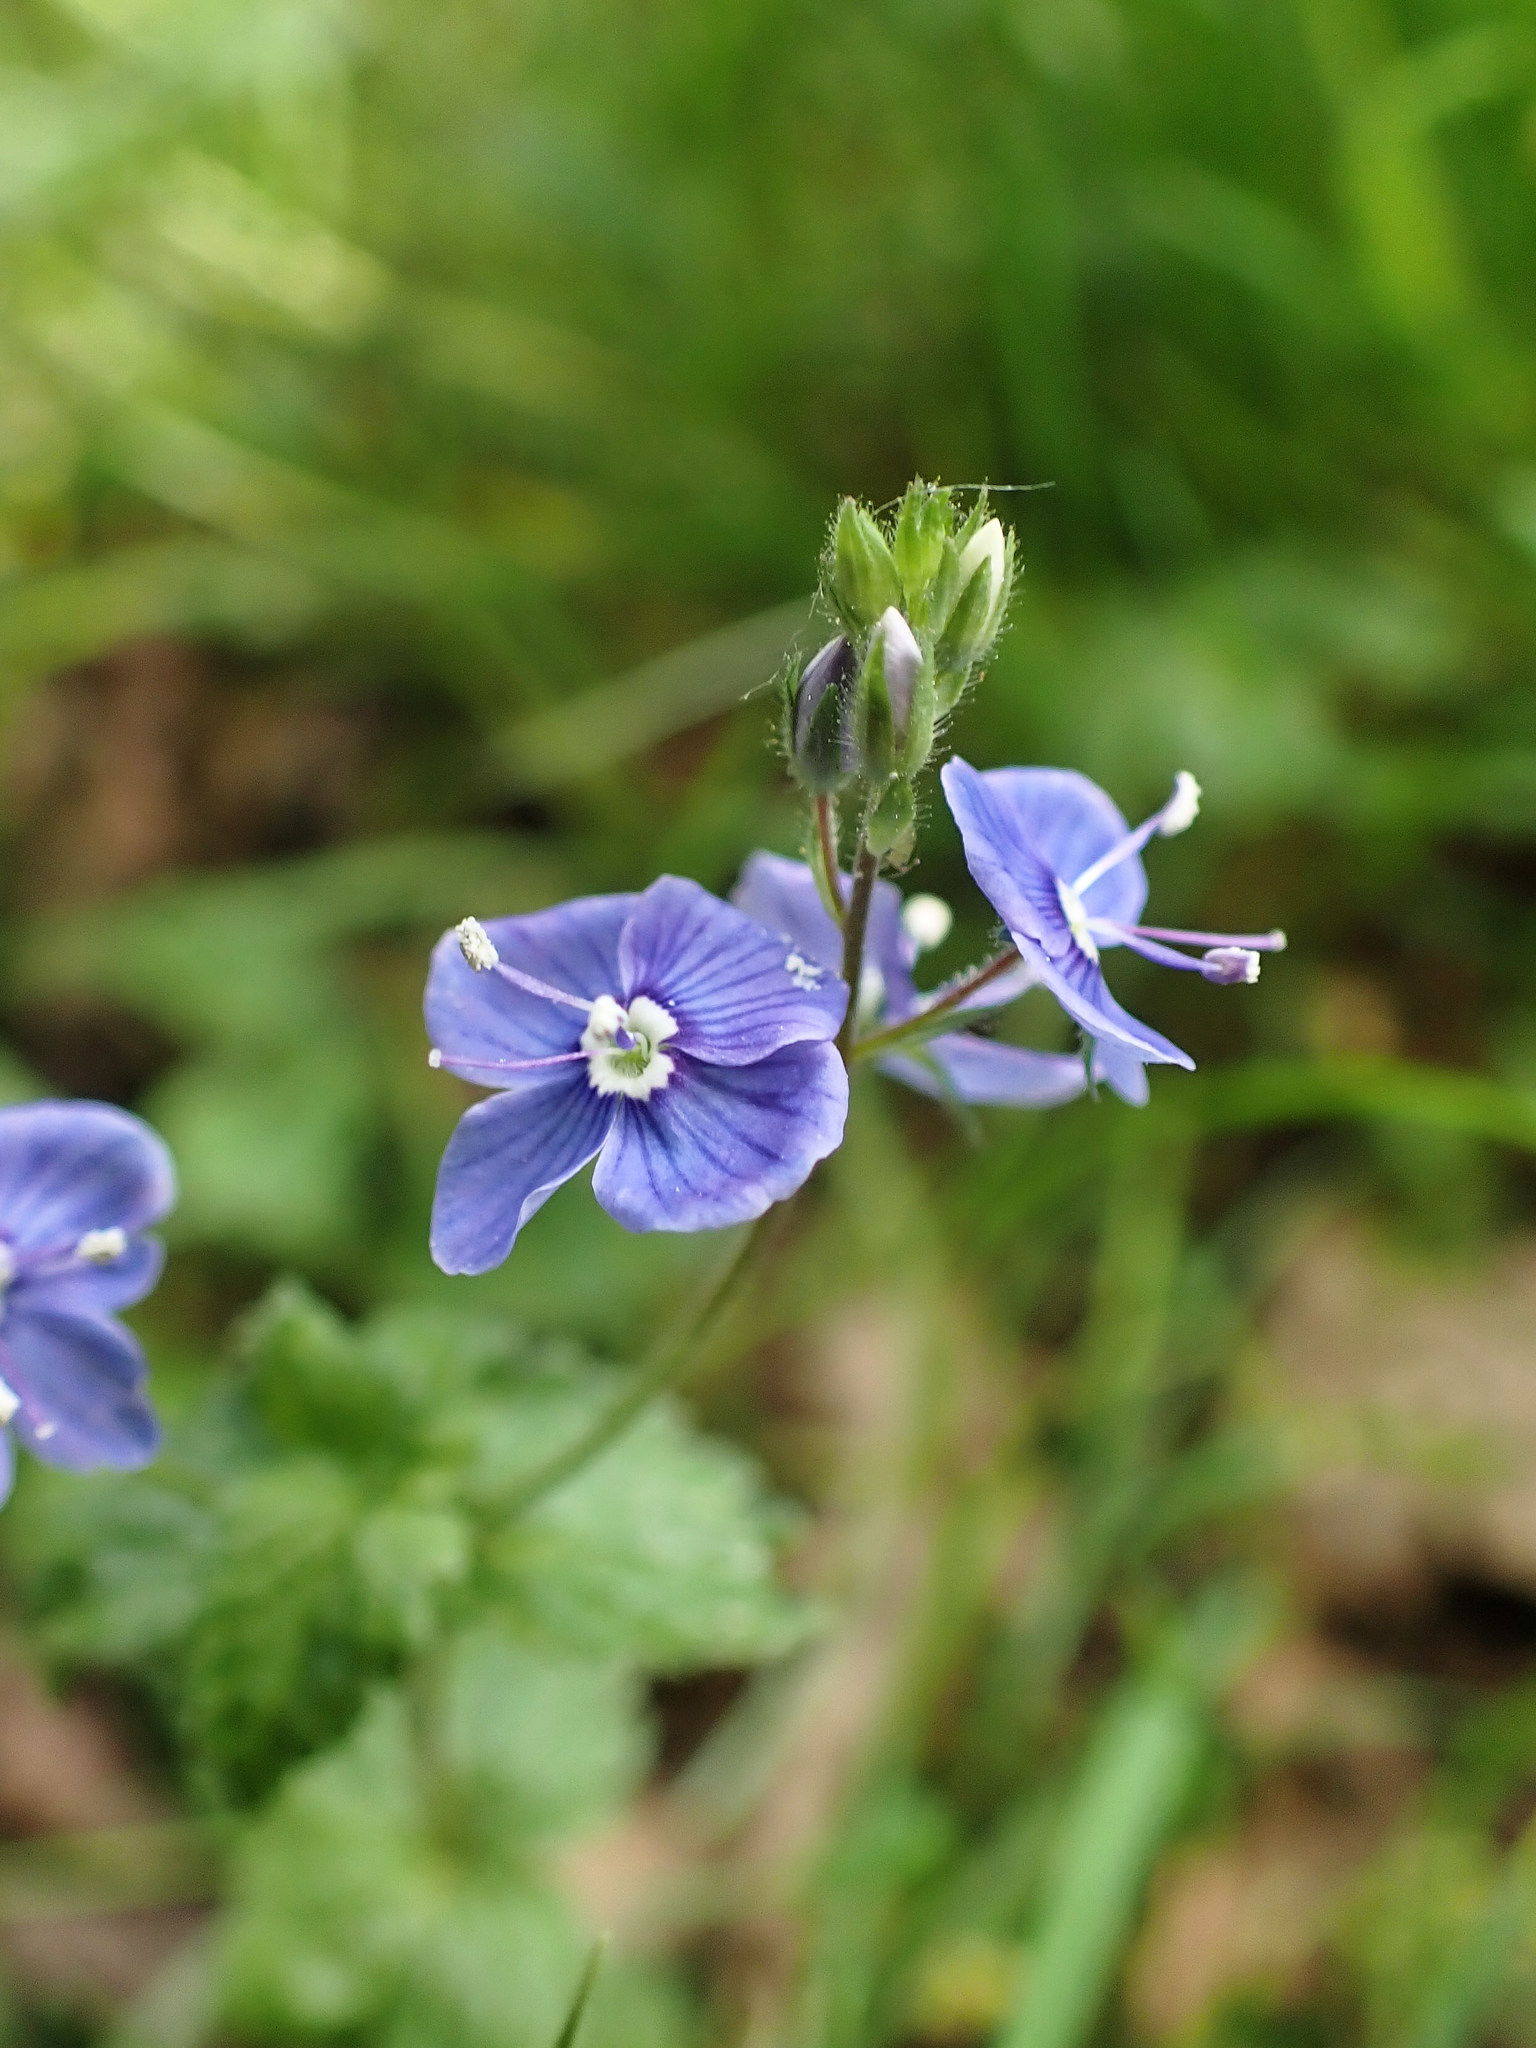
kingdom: Plantae
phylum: Tracheophyta
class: Magnoliopsida
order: Lamiales
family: Plantaginaceae
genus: Veronica
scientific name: Veronica chamaedrys
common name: Germander speedwell
